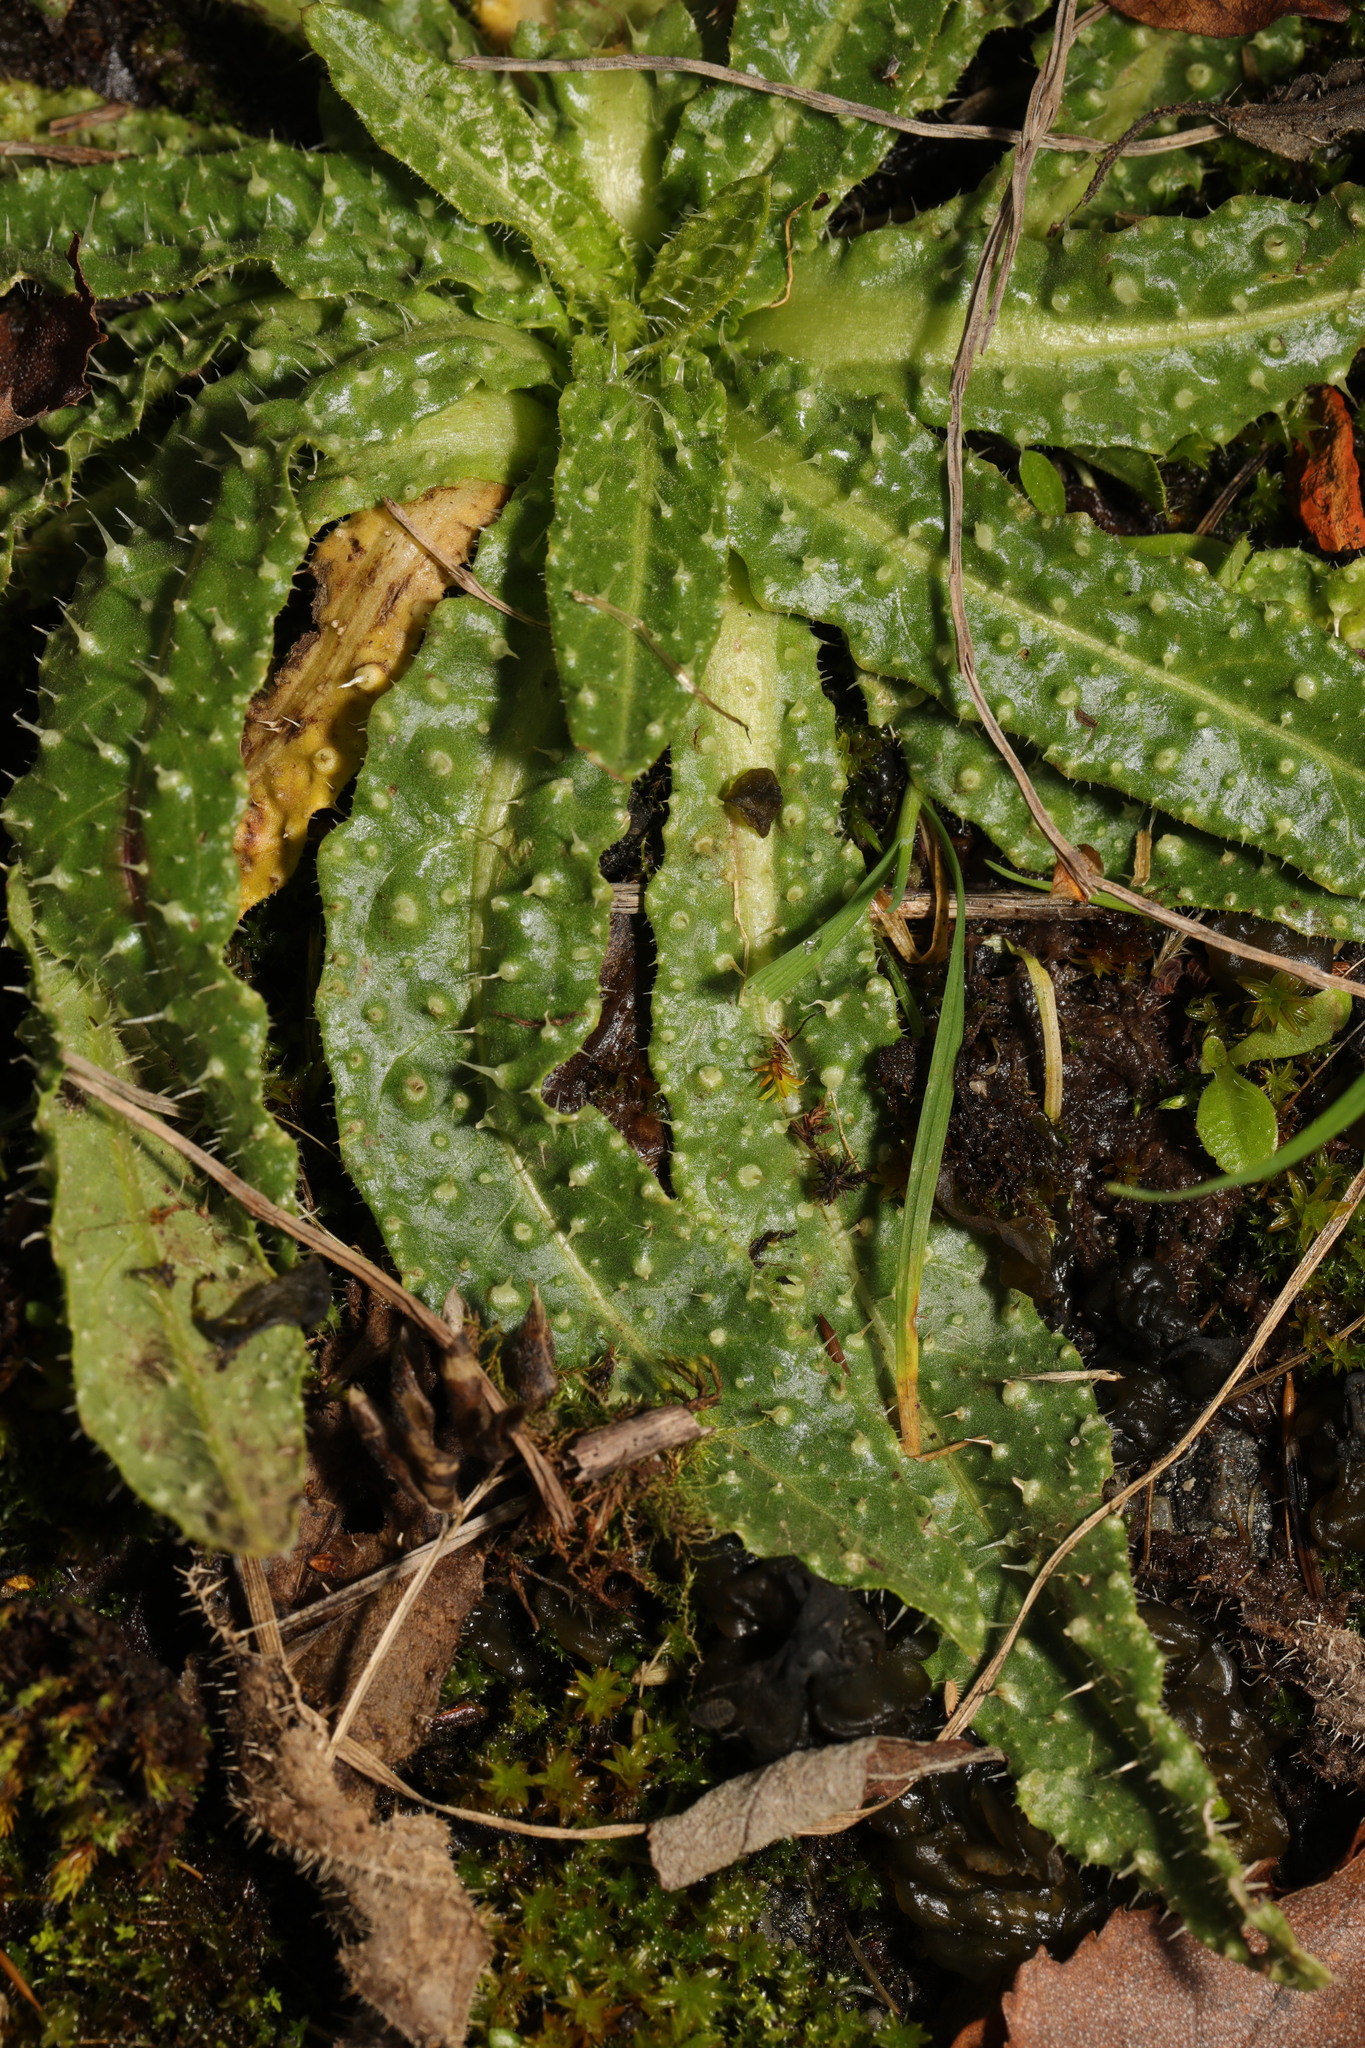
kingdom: Plantae
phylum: Tracheophyta
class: Magnoliopsida
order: Asterales
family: Asteraceae
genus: Helminthotheca
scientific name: Helminthotheca echioides
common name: Ox-tongue
